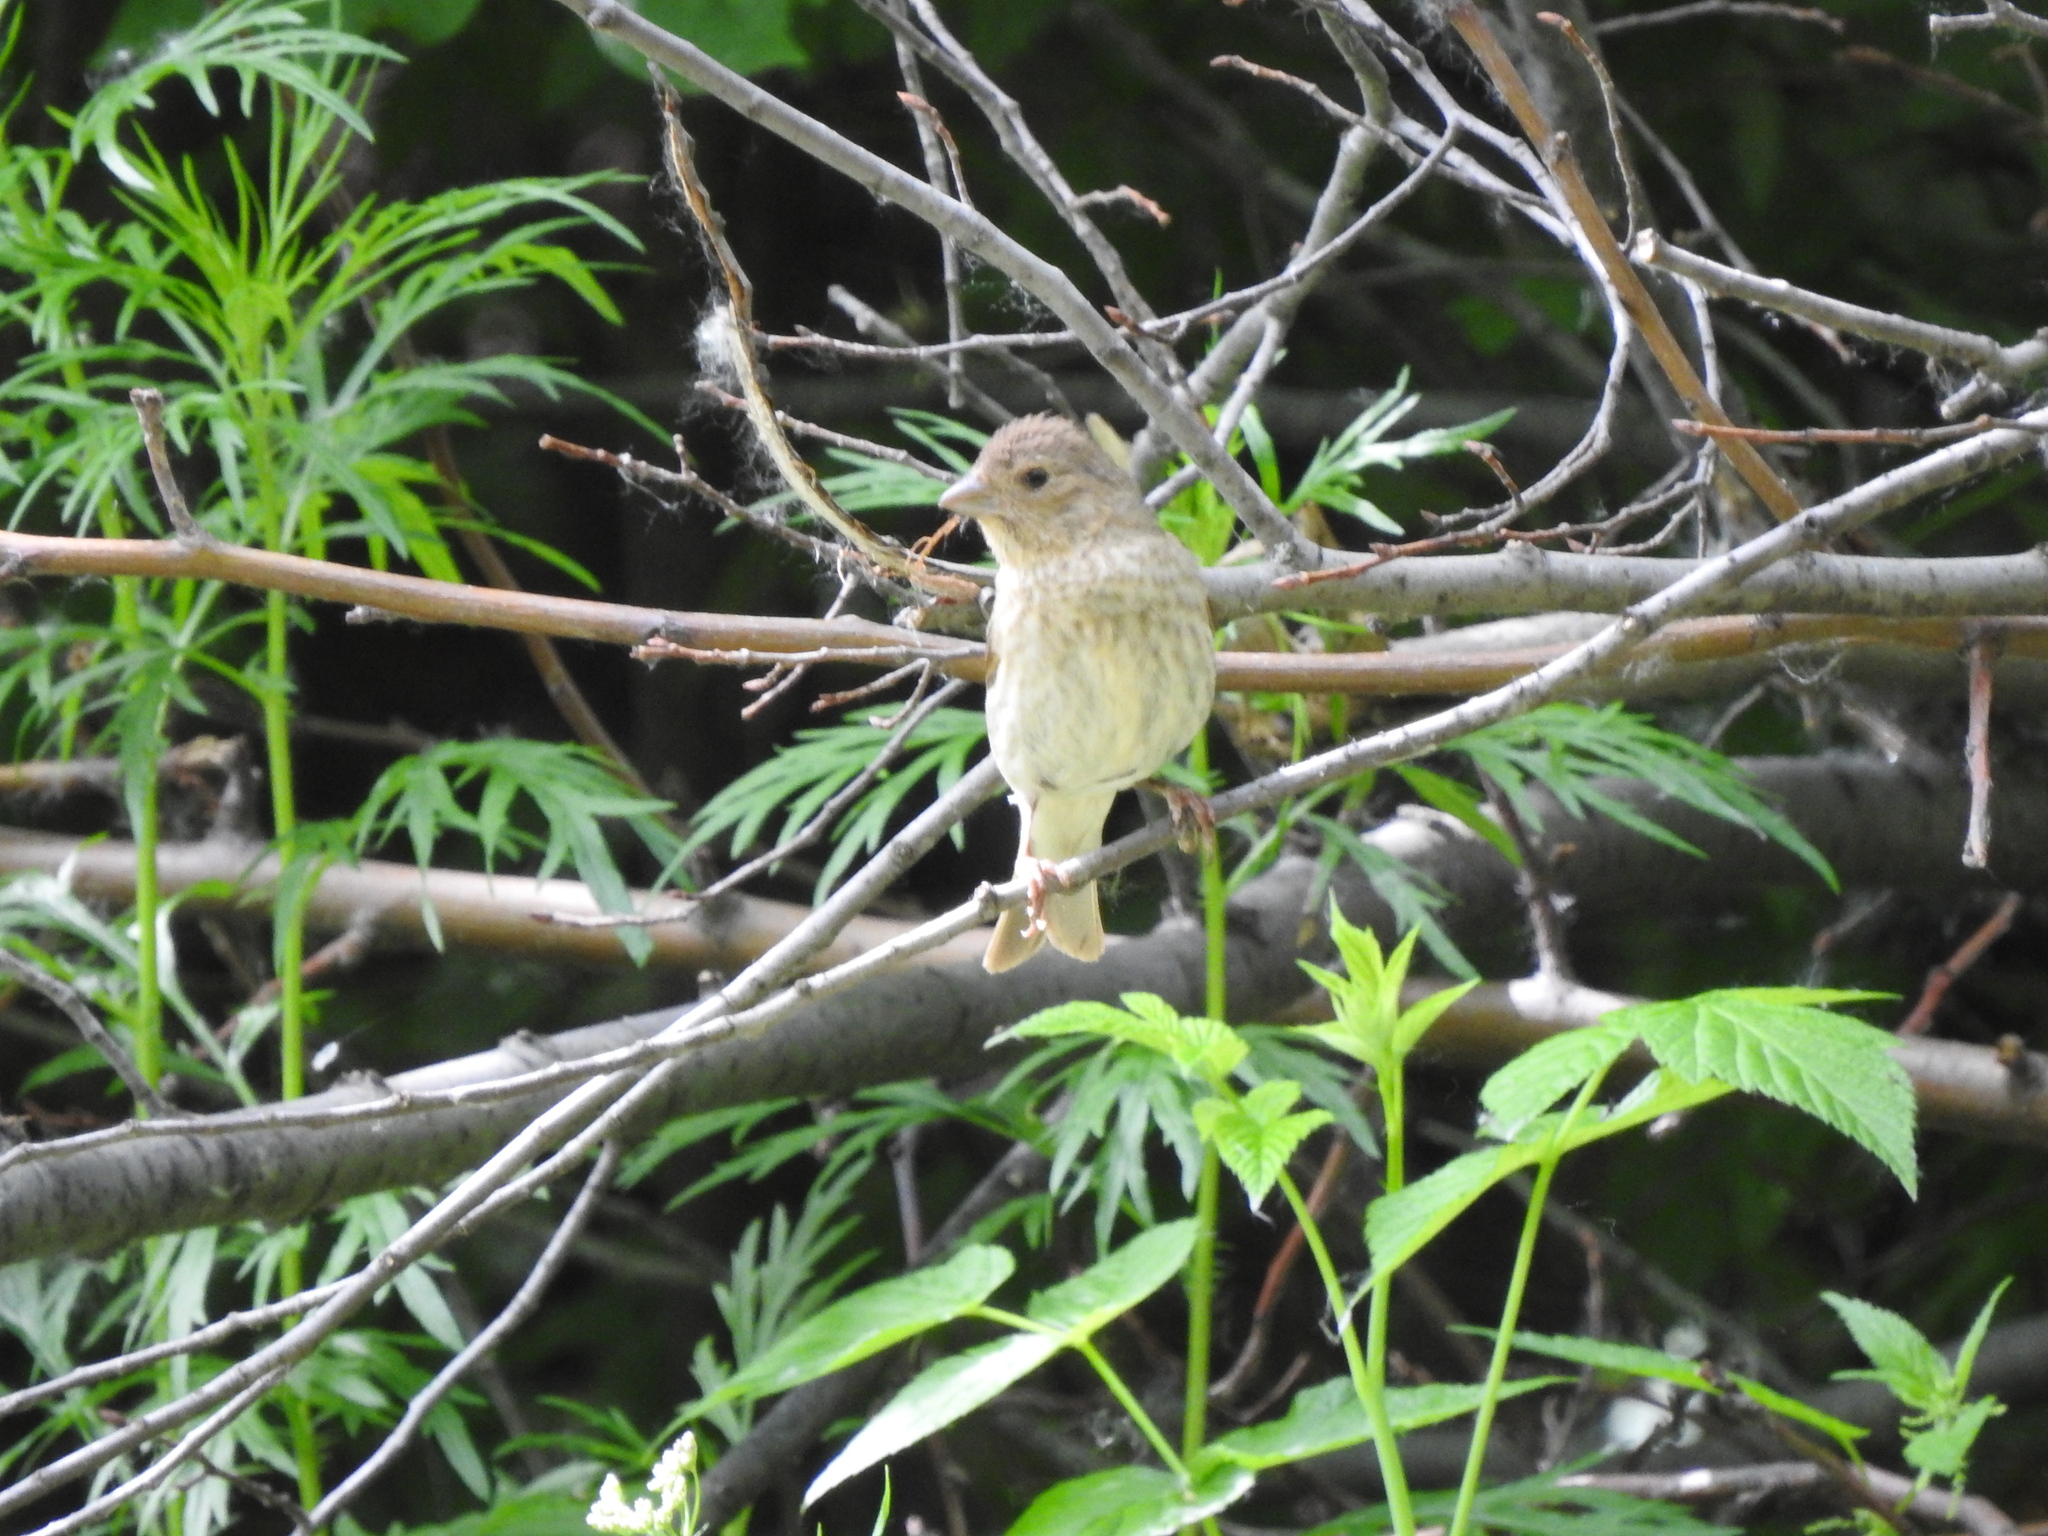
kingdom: Animalia
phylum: Chordata
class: Aves
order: Passeriformes
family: Fringillidae
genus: Carpodacus
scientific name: Carpodacus erythrinus
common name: Common rosefinch
